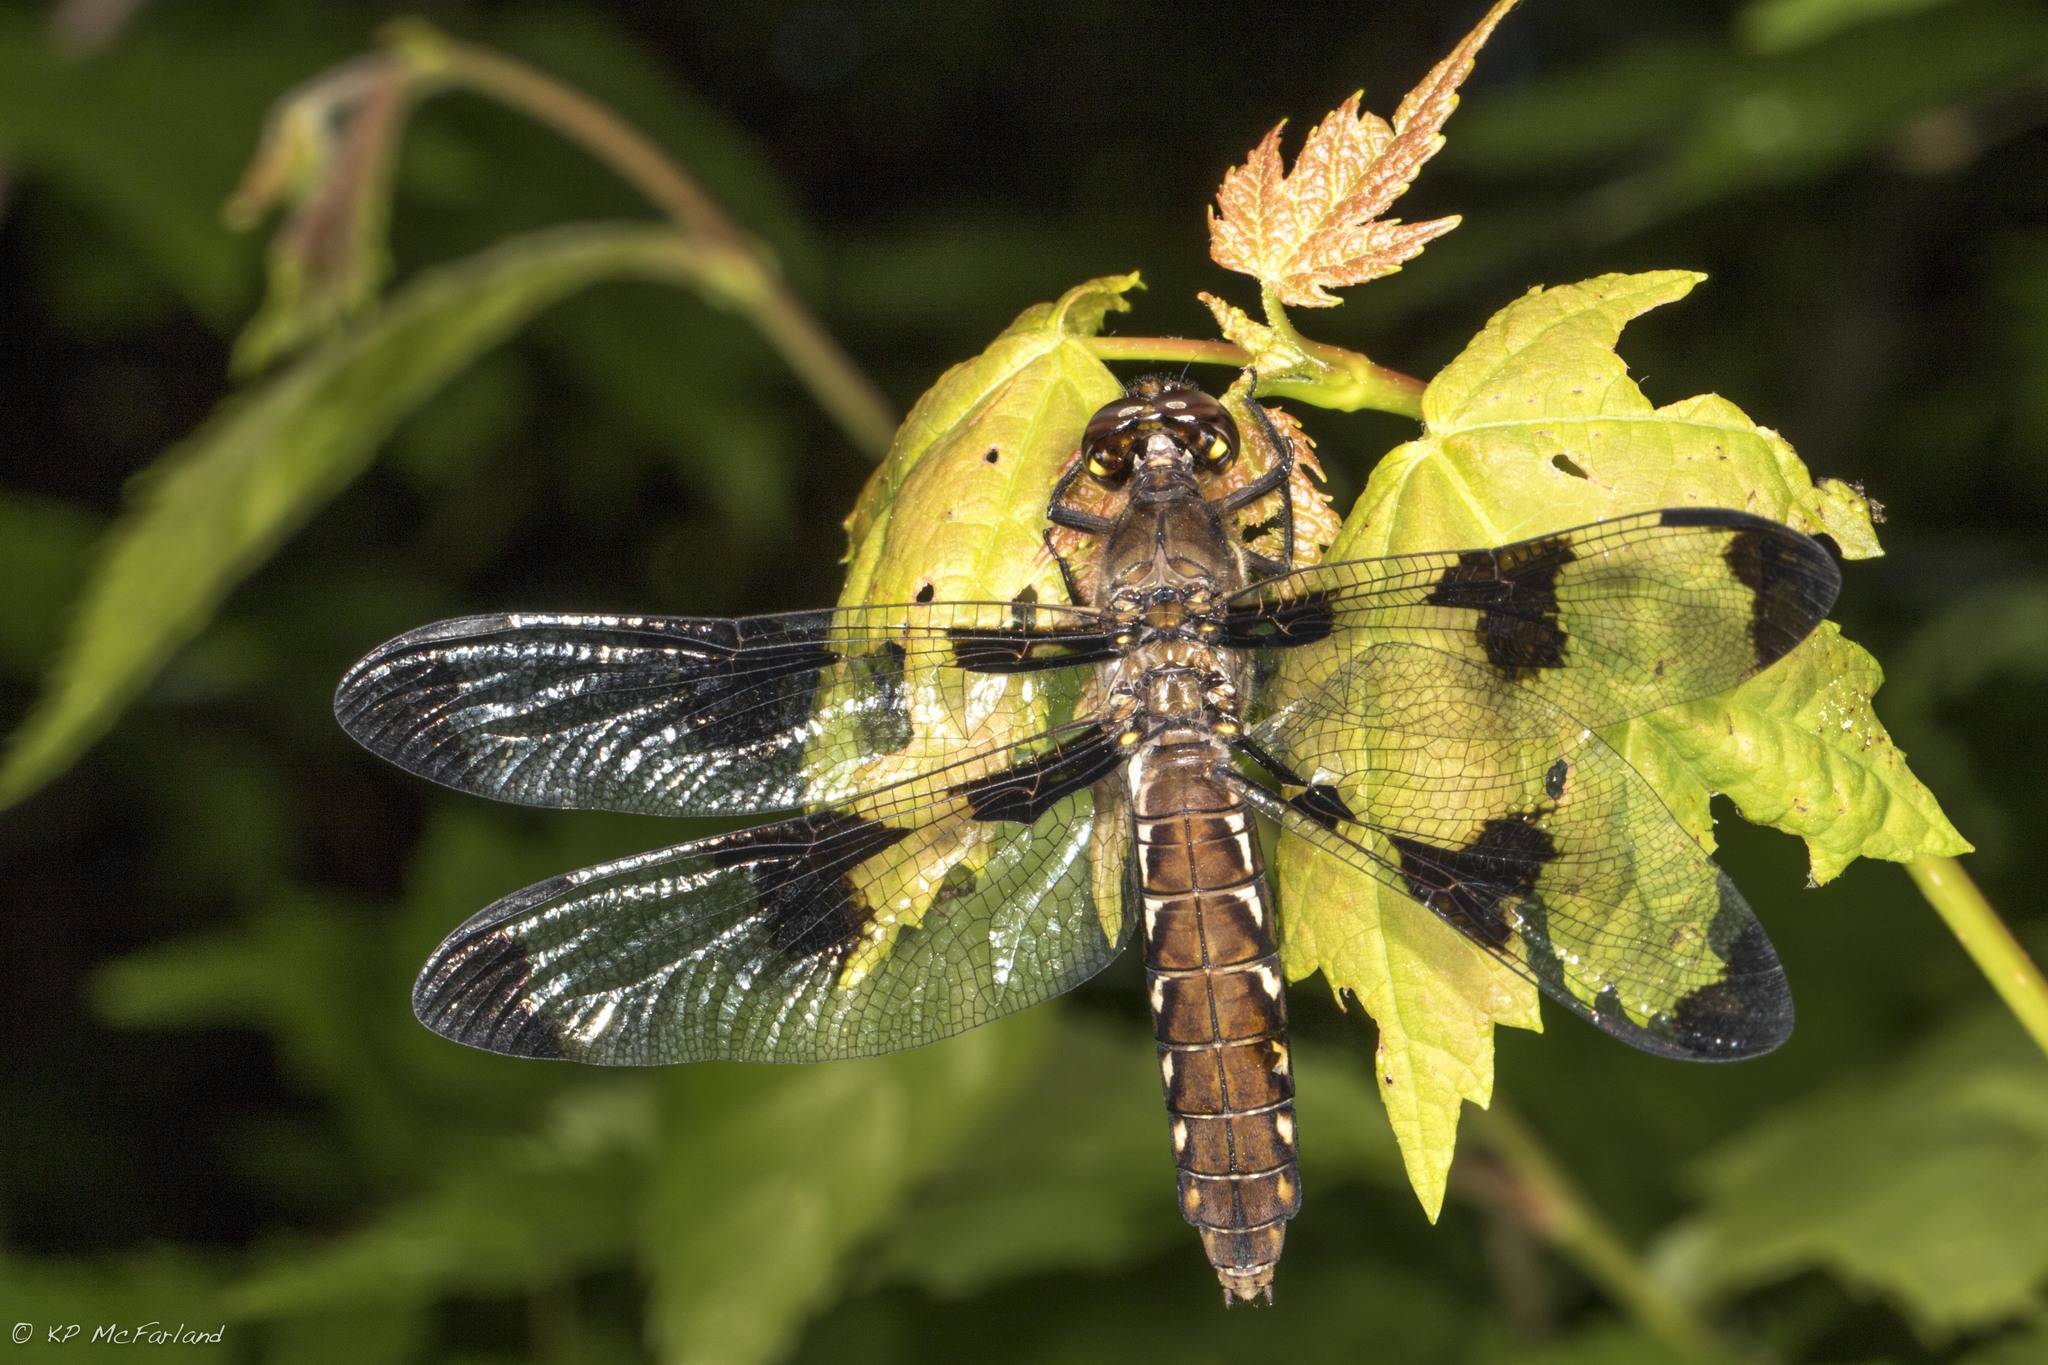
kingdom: Animalia
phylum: Arthropoda
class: Insecta
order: Odonata
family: Libellulidae
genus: Plathemis
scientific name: Plathemis lydia
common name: Common whitetail
